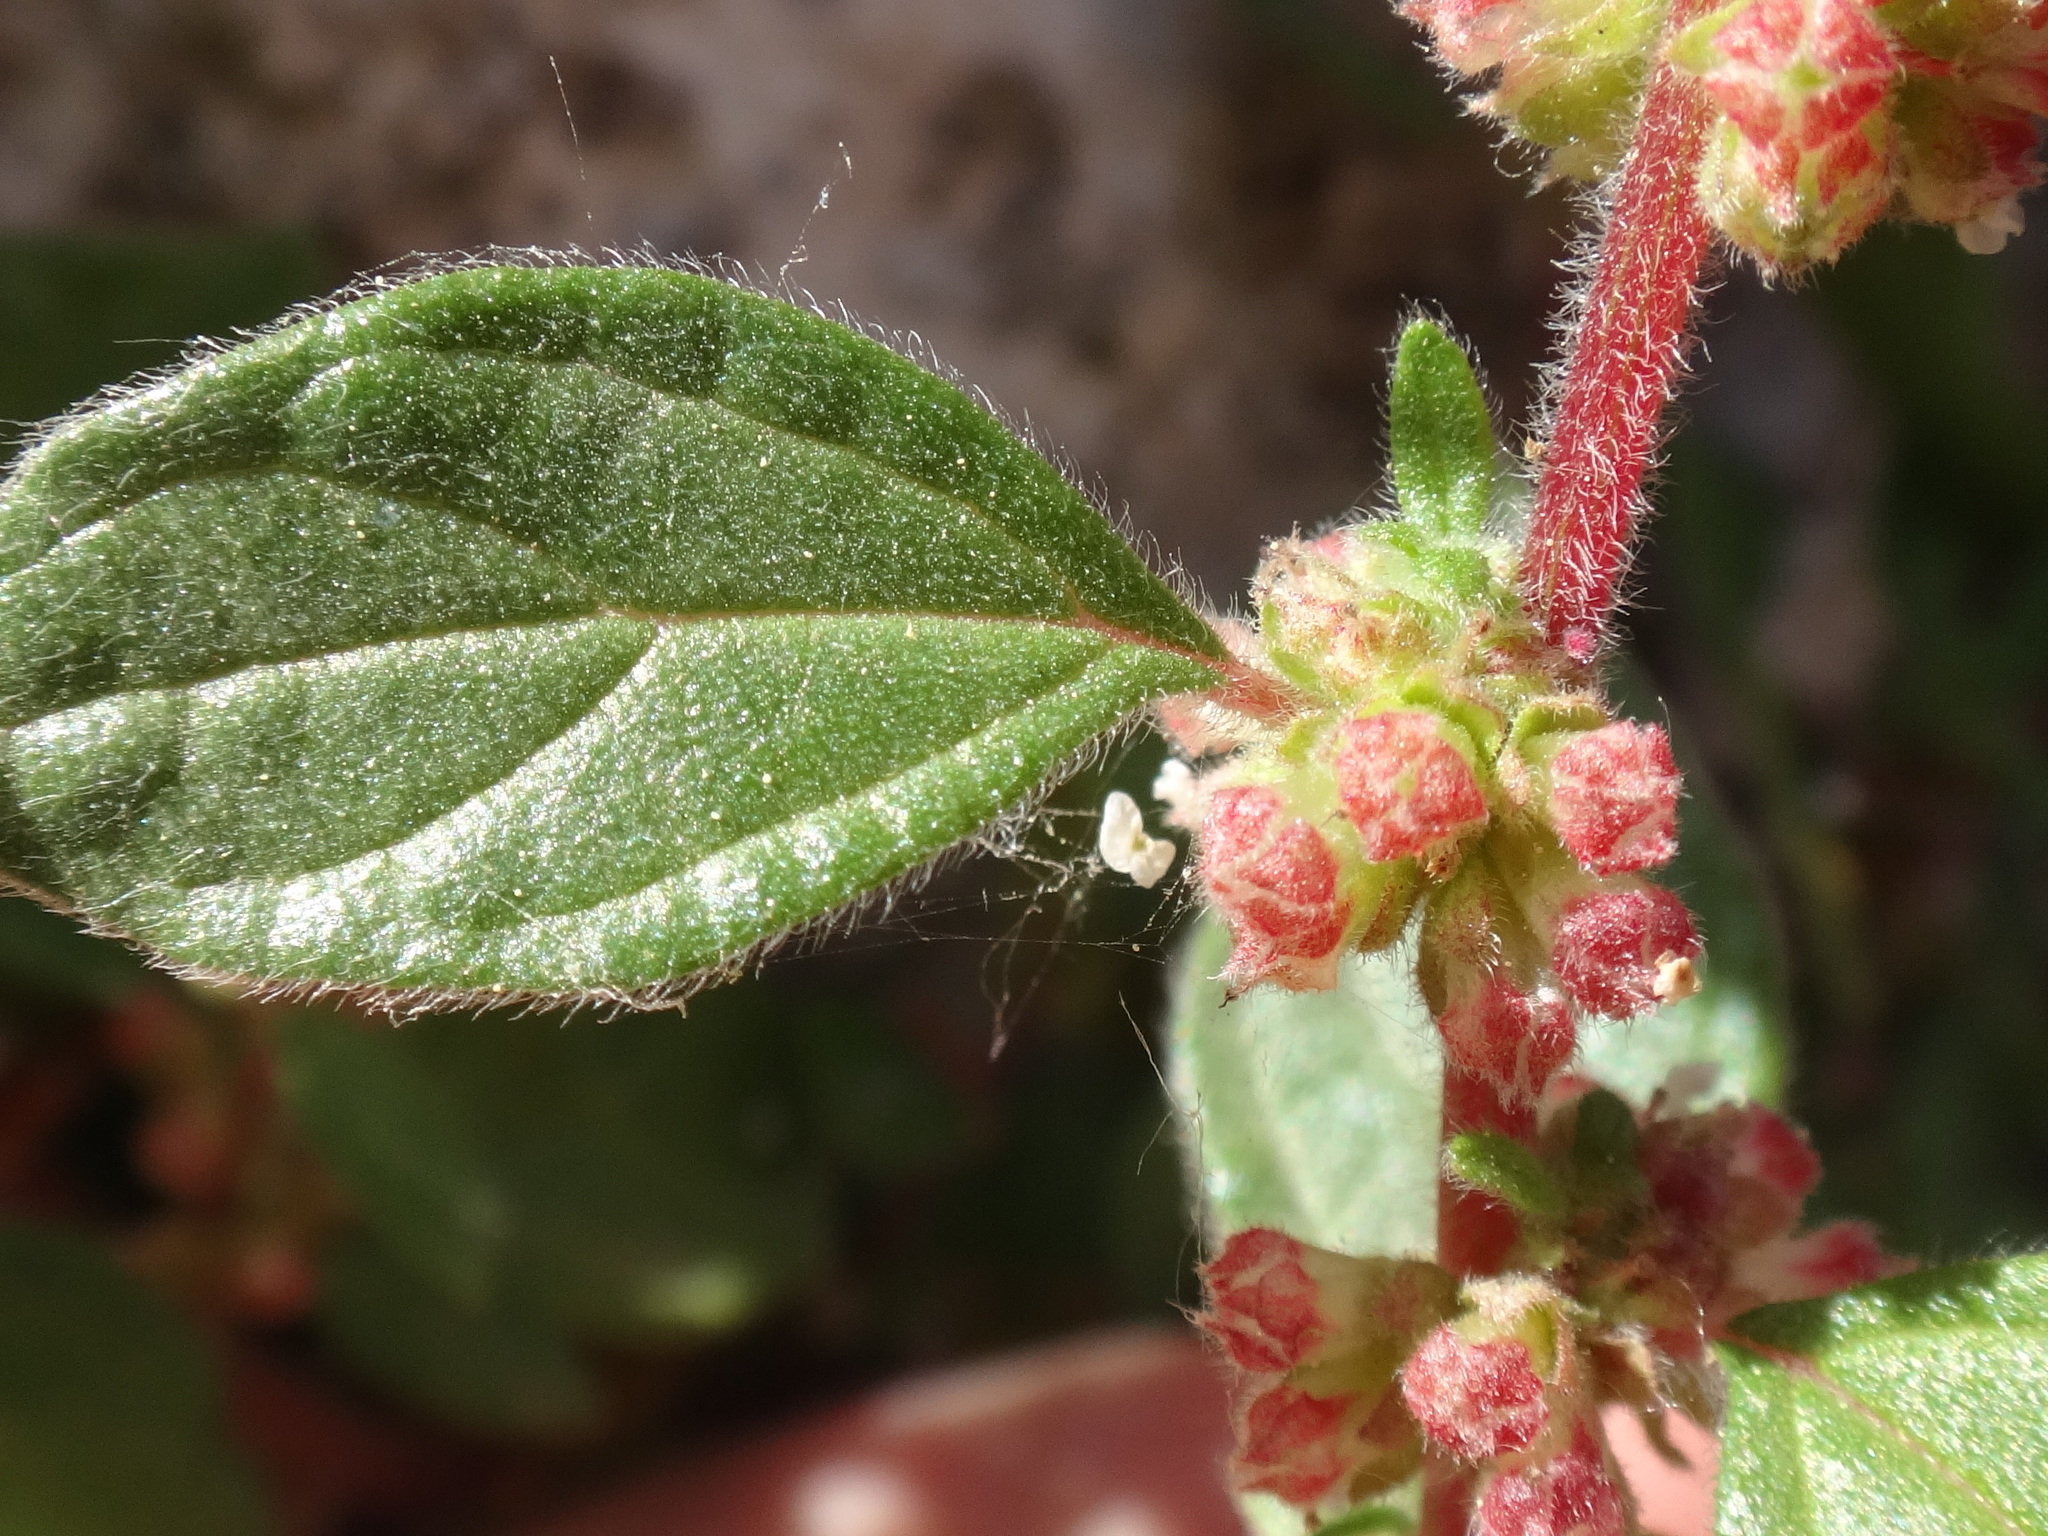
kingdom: Plantae
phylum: Tracheophyta
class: Magnoliopsida
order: Rosales
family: Urticaceae
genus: Parietaria
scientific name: Parietaria judaica
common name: Pellitory-of-the-wall
